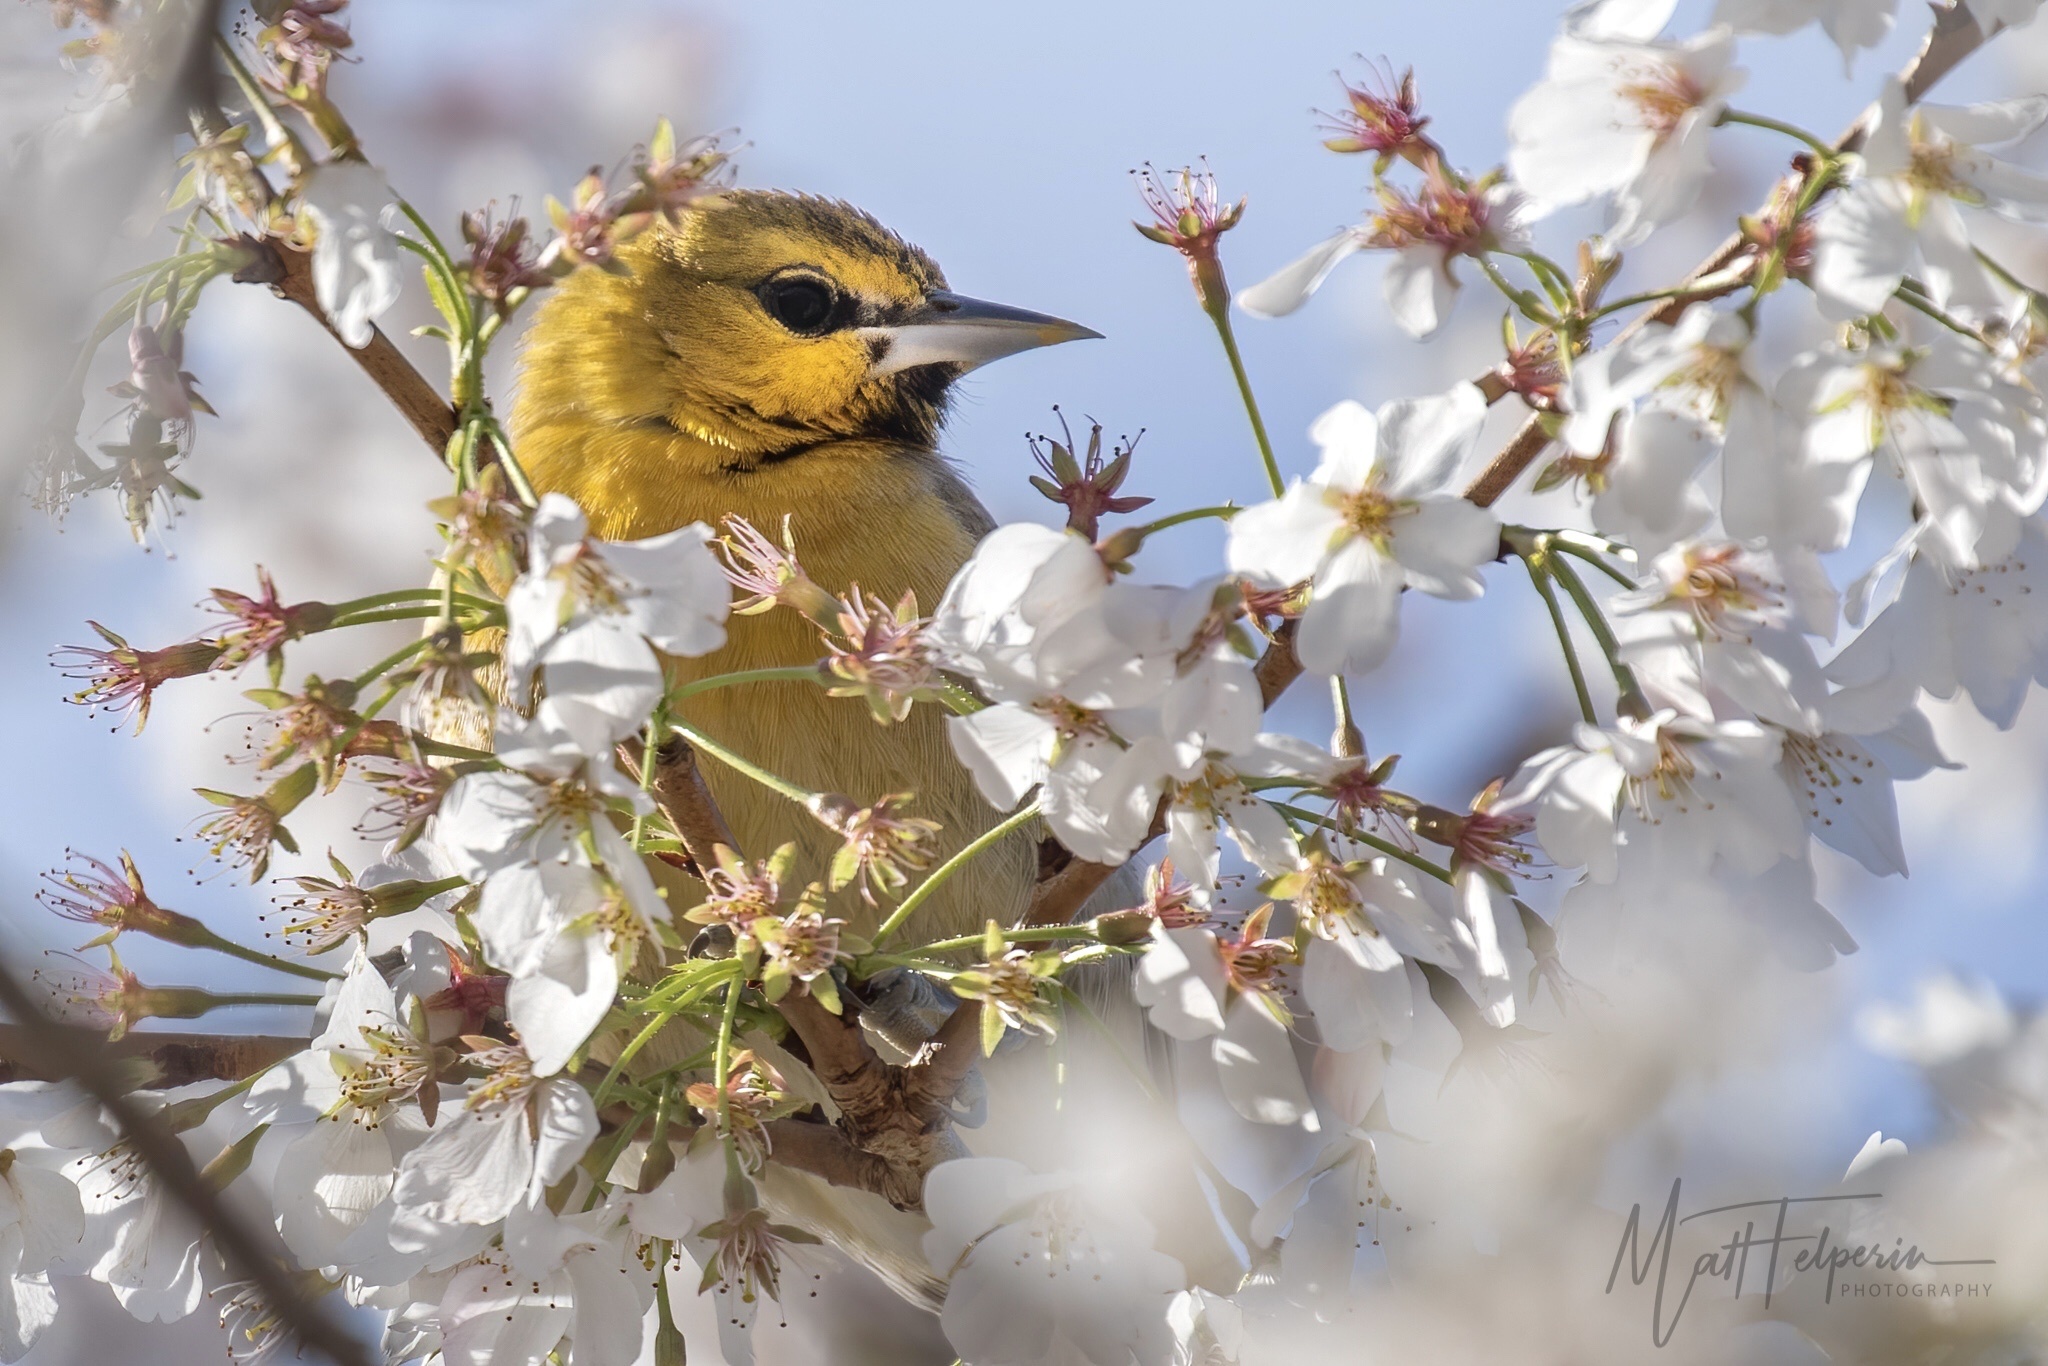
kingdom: Animalia
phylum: Chordata
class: Aves
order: Passeriformes
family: Icteridae
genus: Icterus
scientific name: Icterus bullockii
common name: Bullock's oriole
